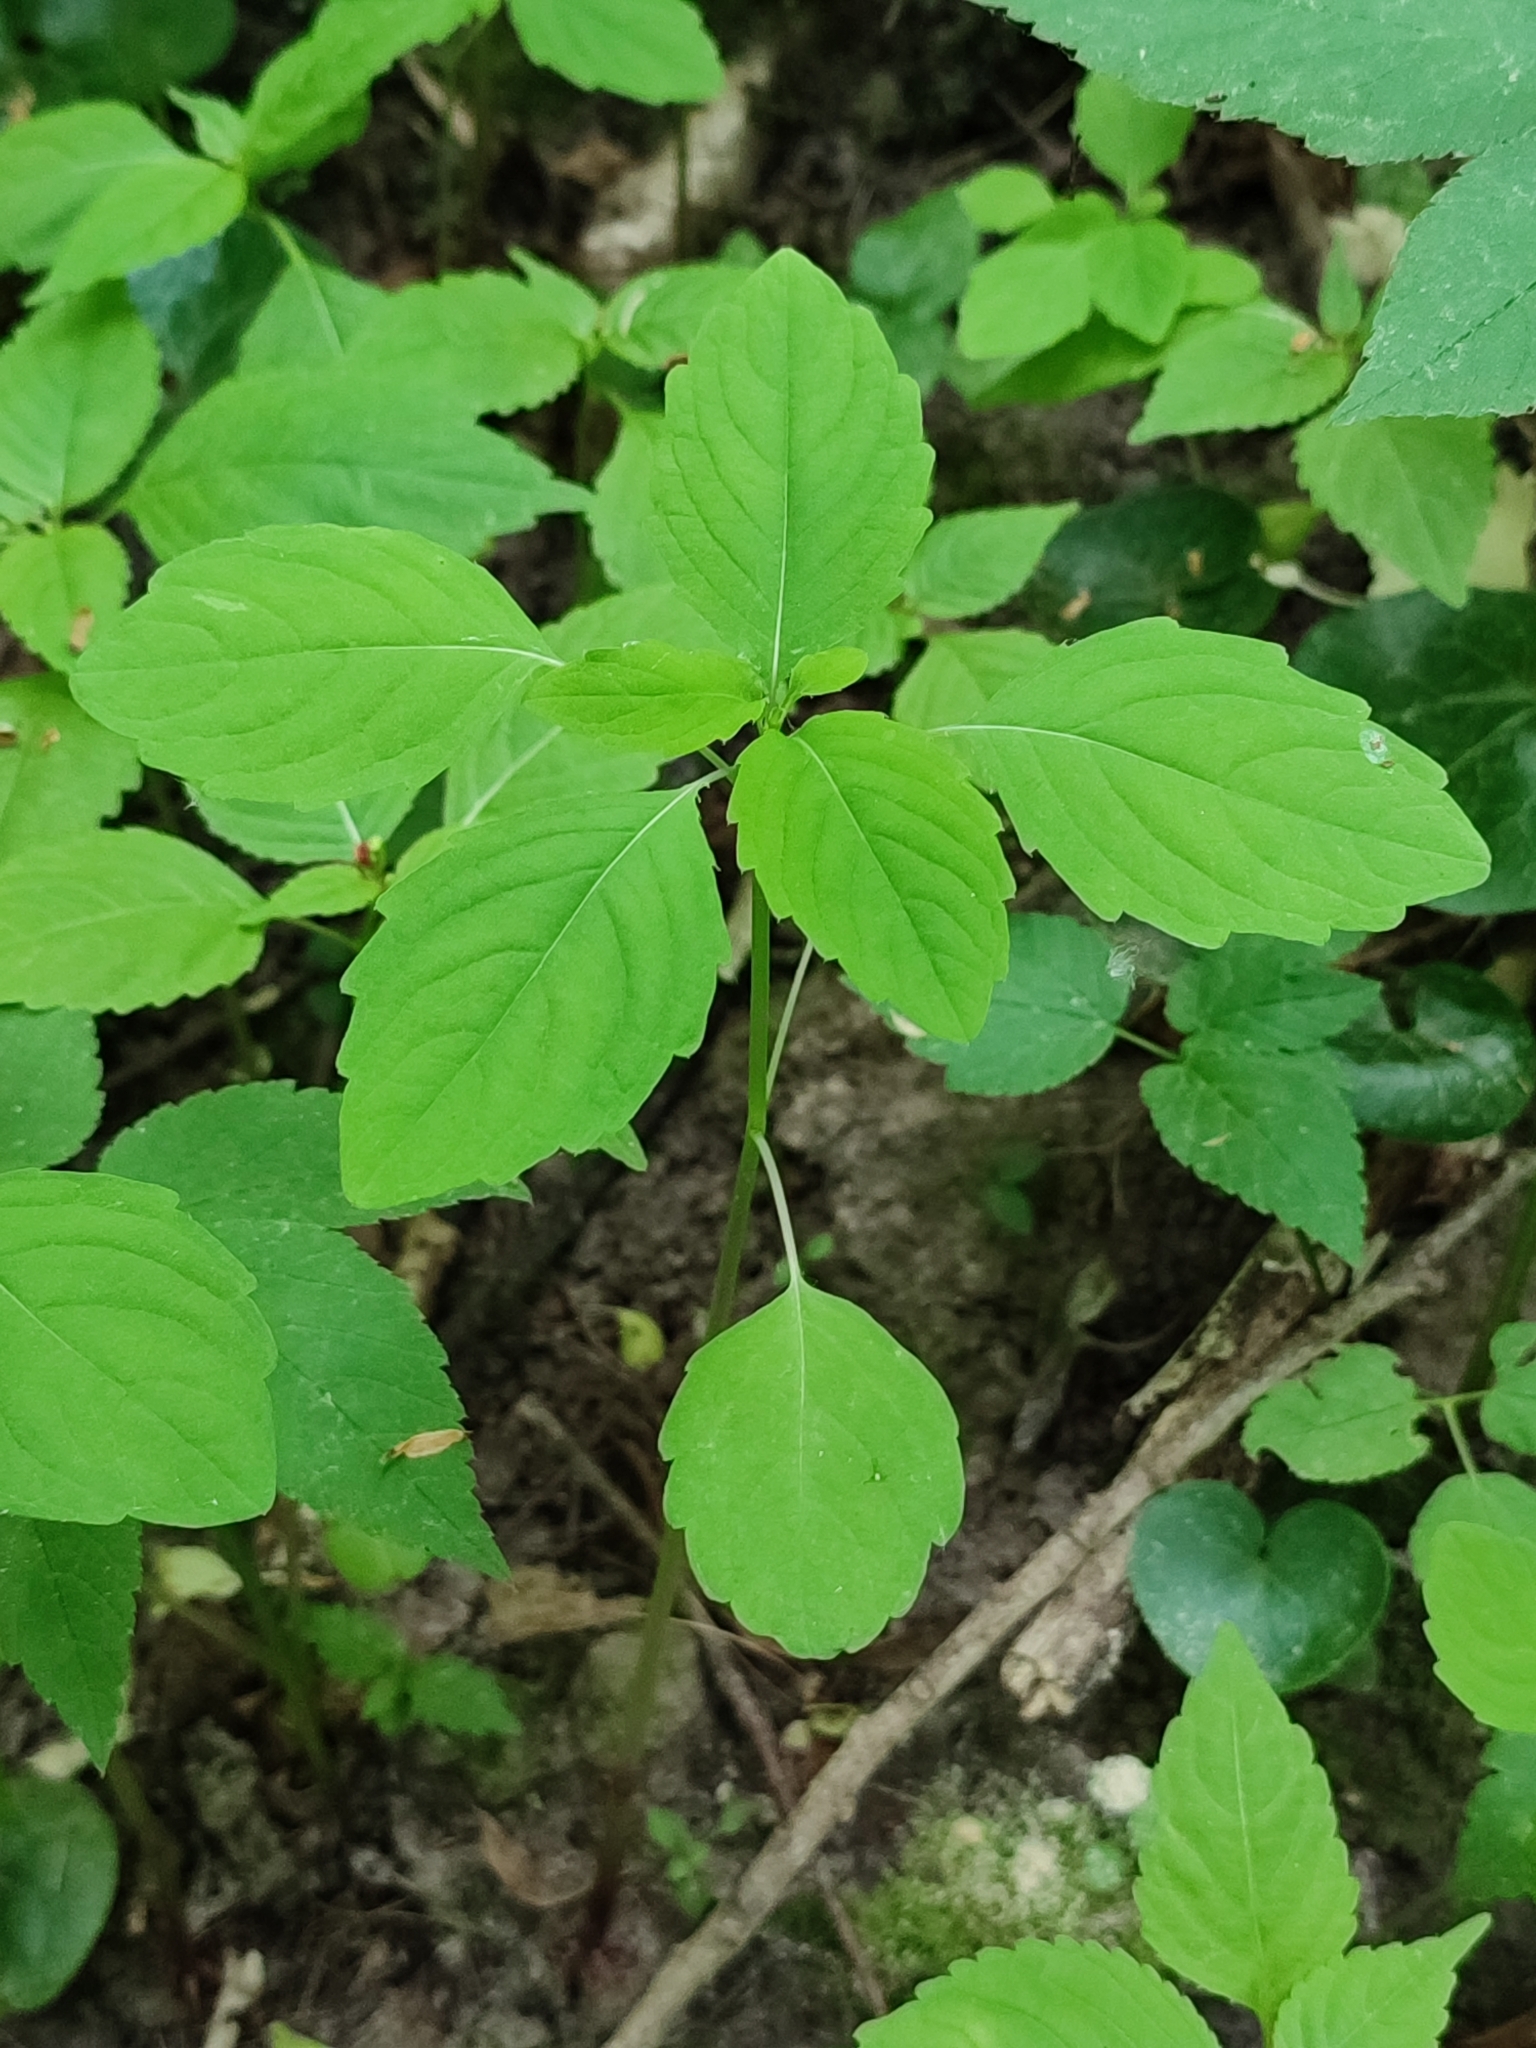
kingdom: Plantae
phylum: Tracheophyta
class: Magnoliopsida
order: Ericales
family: Balsaminaceae
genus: Impatiens
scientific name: Impatiens noli-tangere
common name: Touch-me-not balsam
